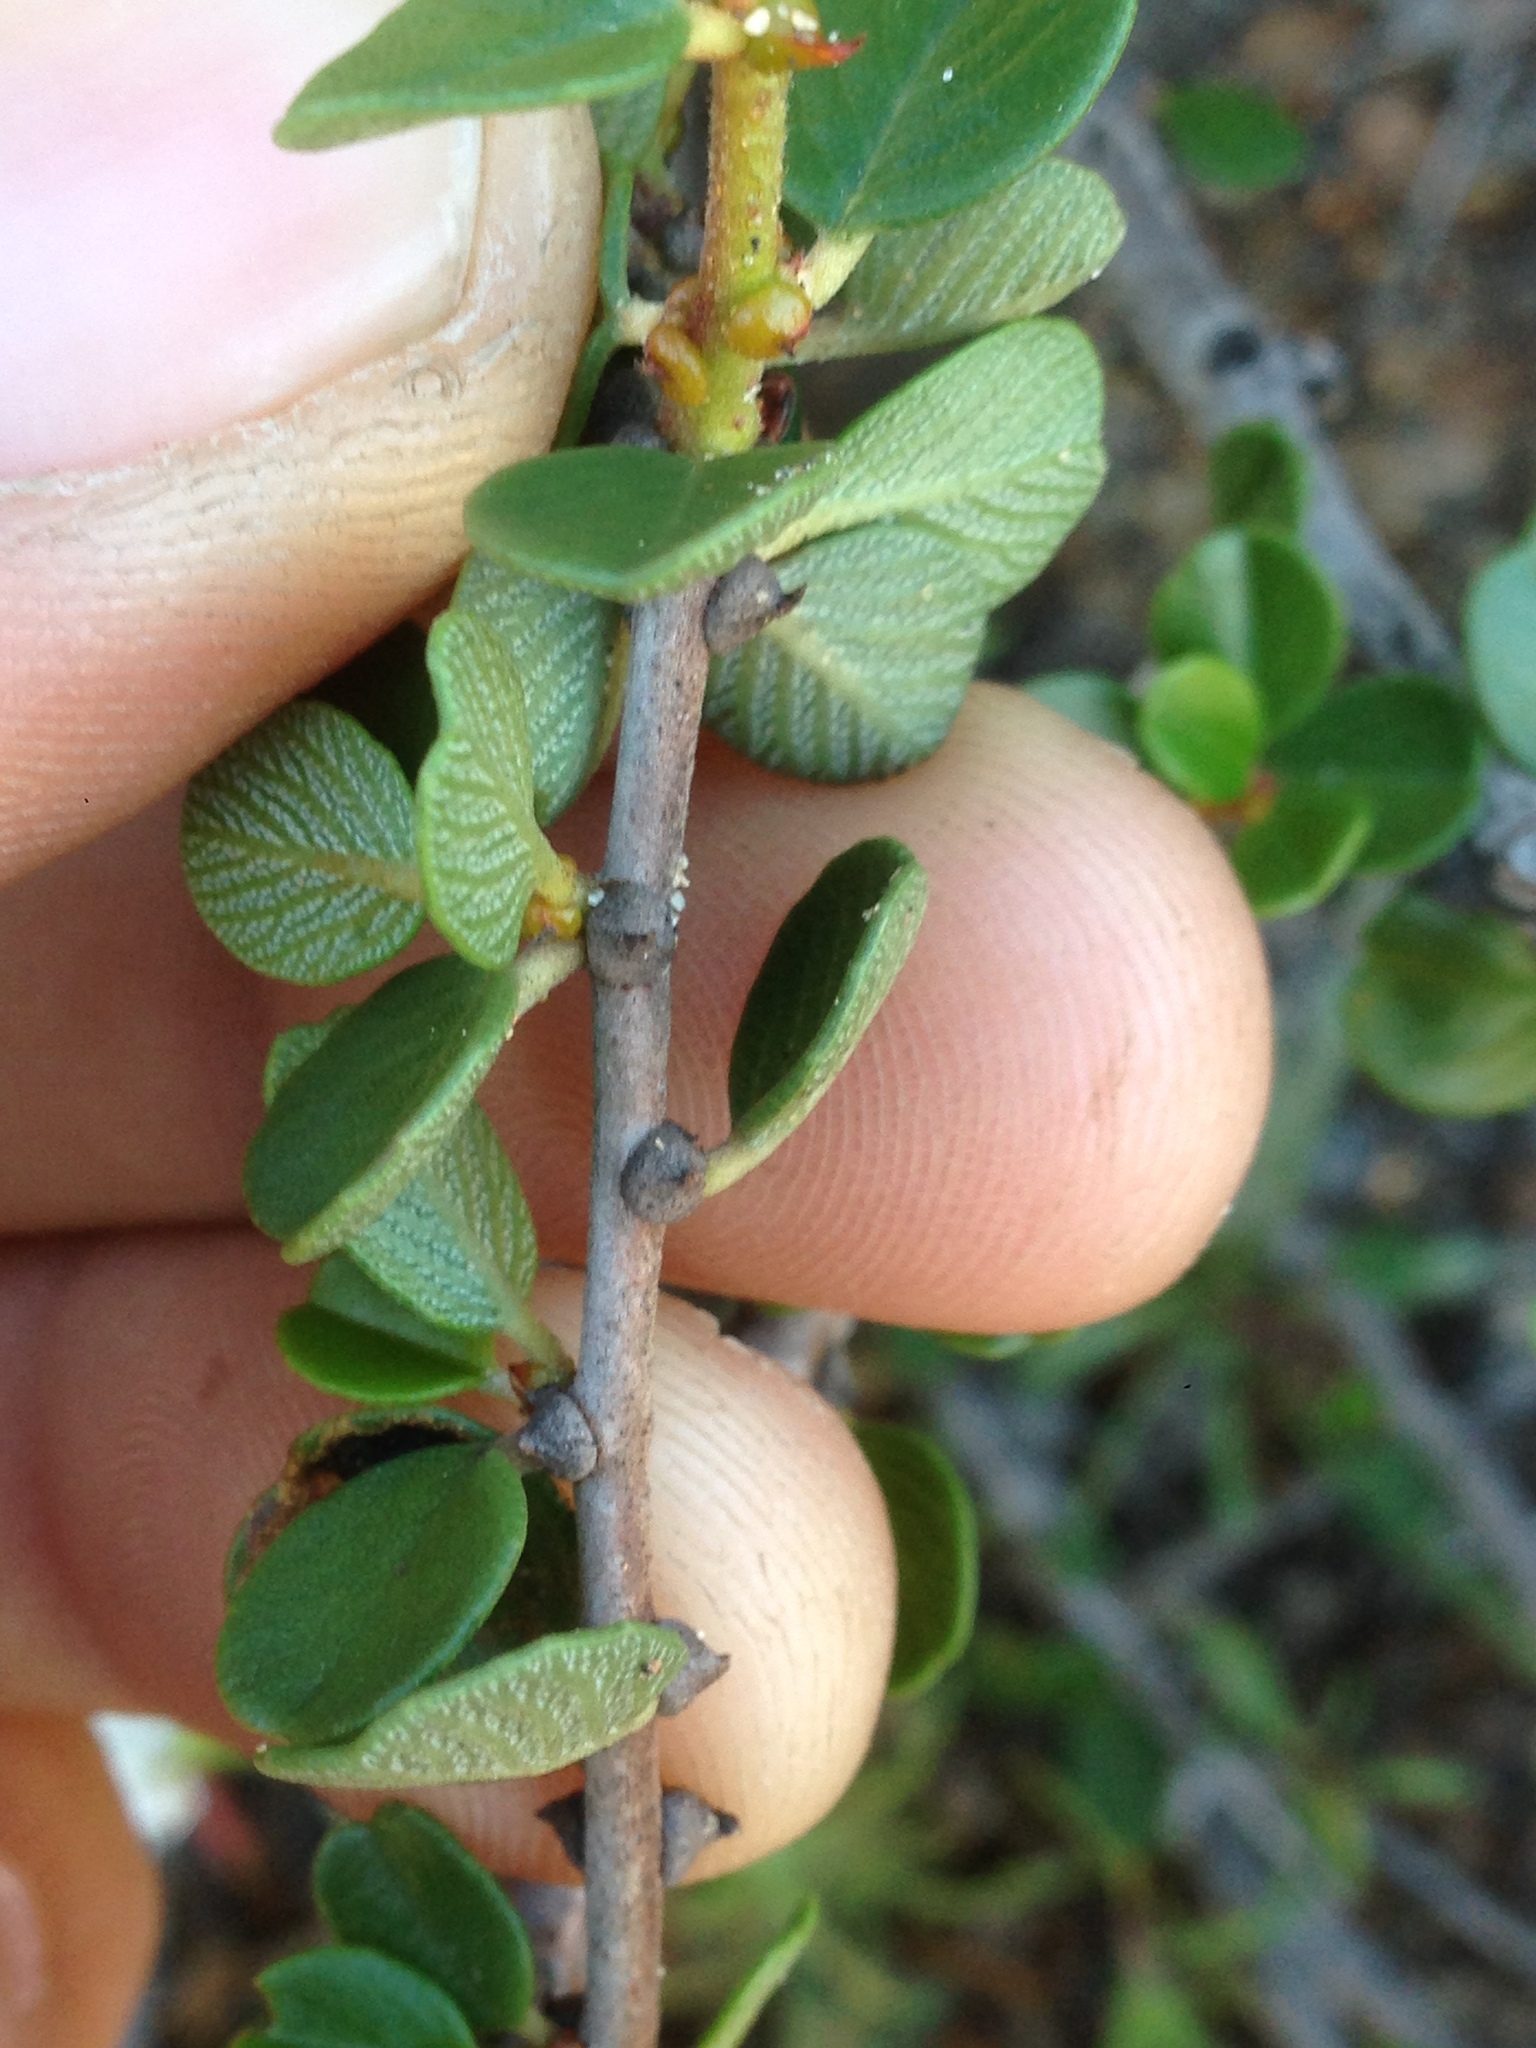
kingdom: Plantae
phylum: Tracheophyta
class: Magnoliopsida
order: Rosales
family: Rhamnaceae
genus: Ceanothus
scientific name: Ceanothus verrucosus
